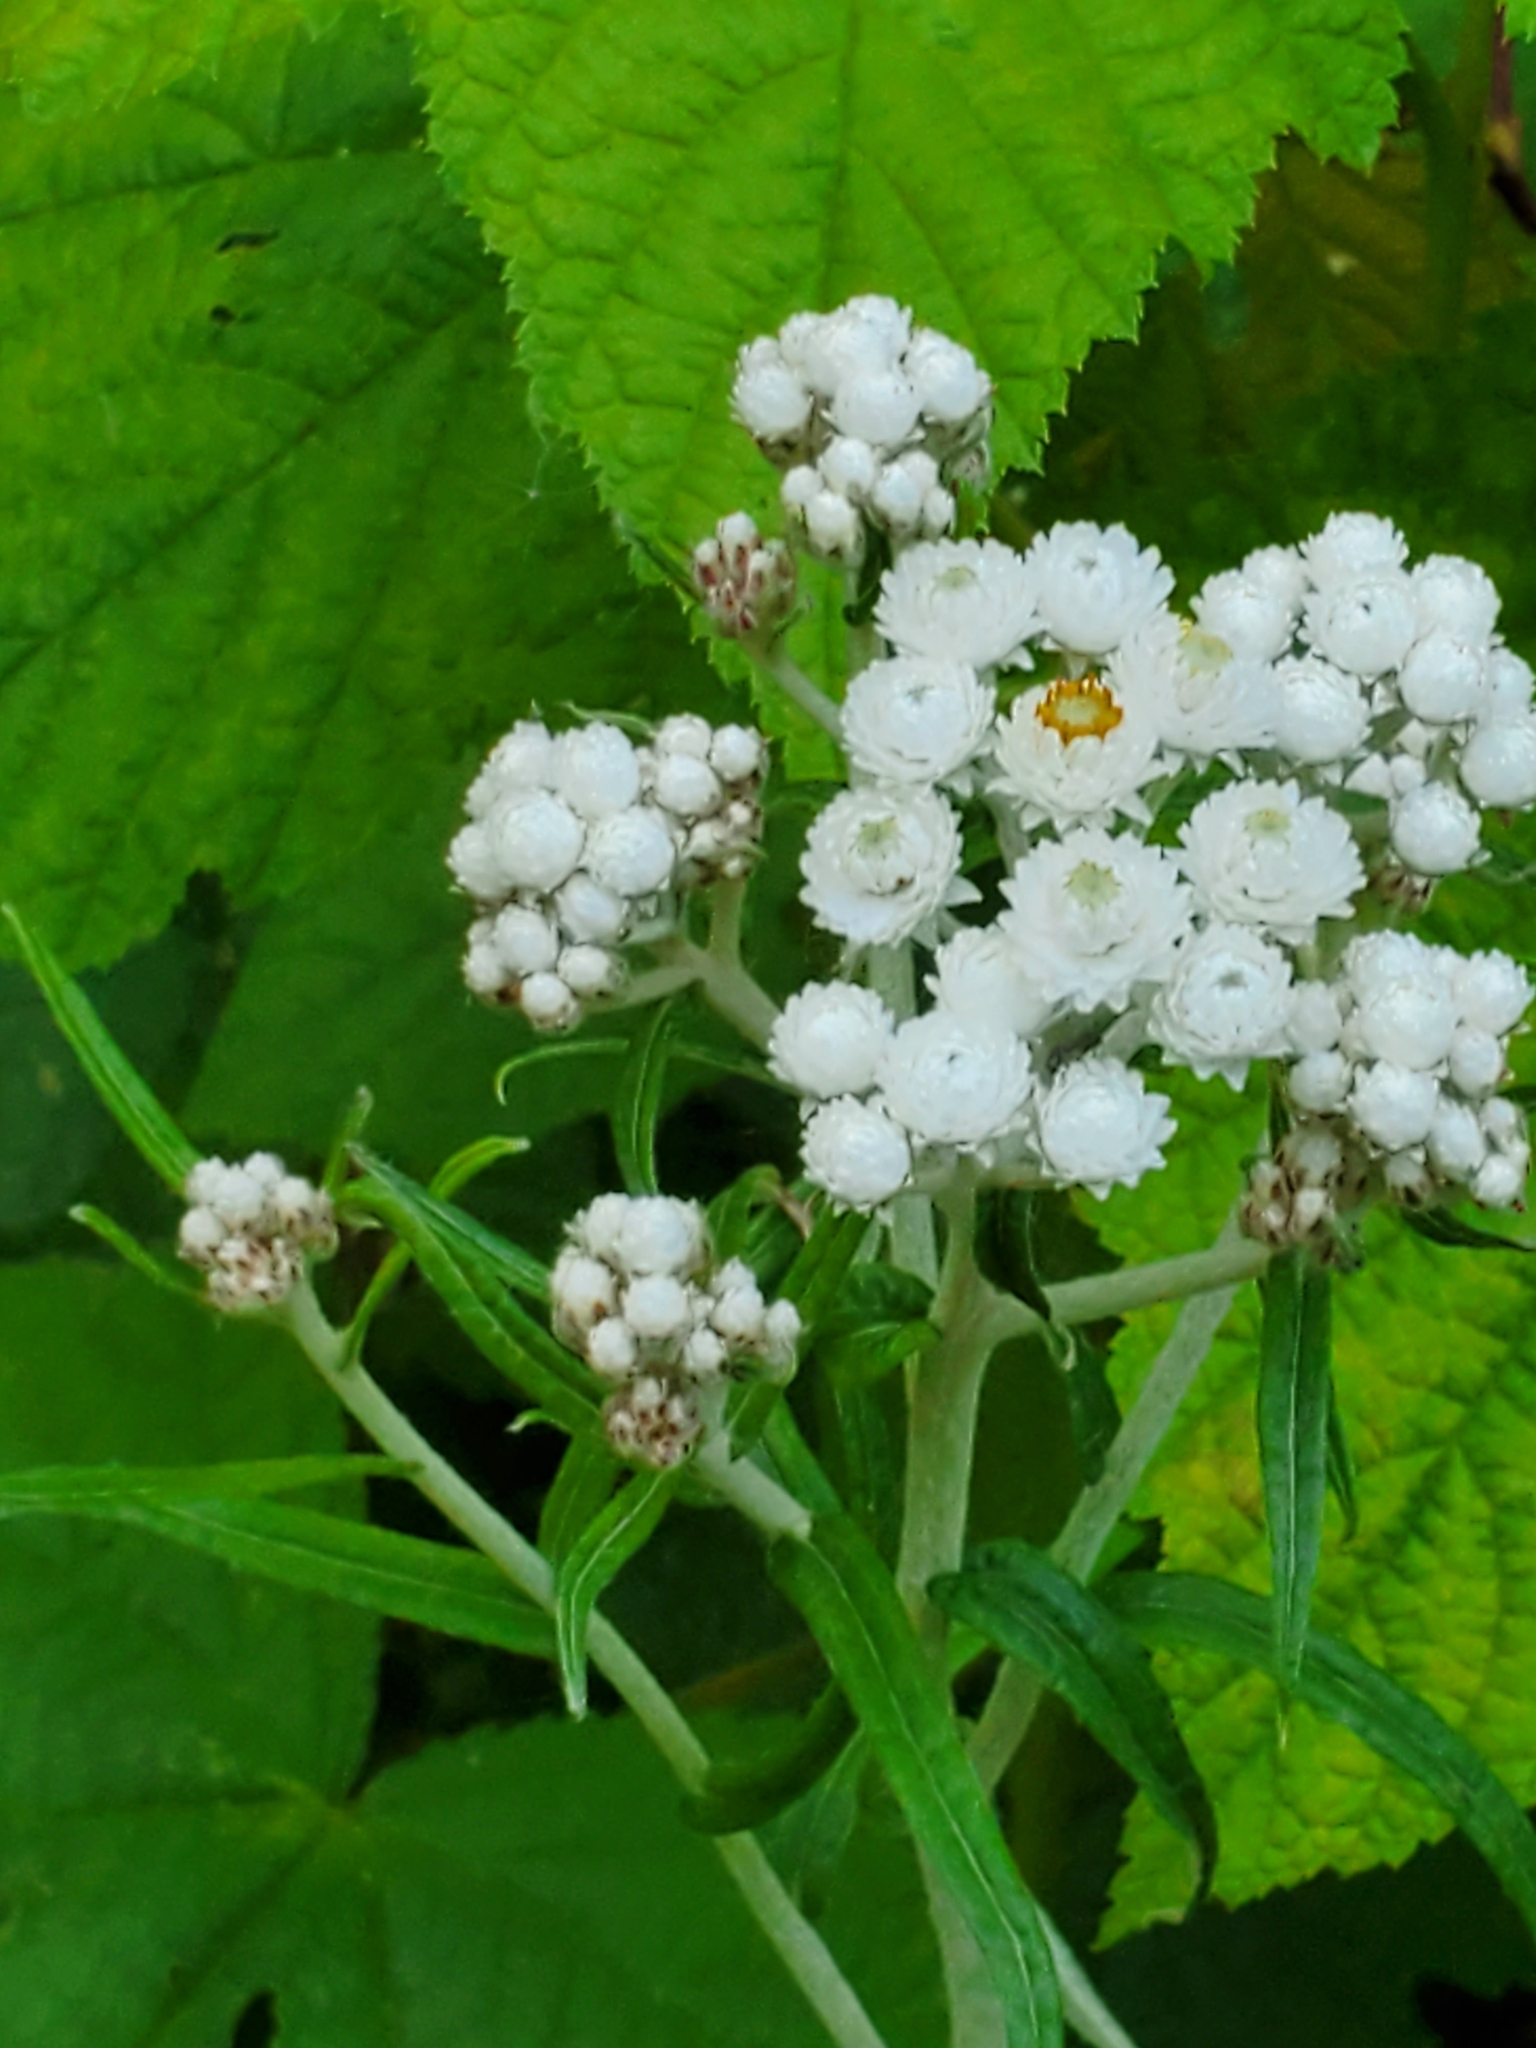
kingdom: Plantae
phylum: Tracheophyta
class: Magnoliopsida
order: Asterales
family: Asteraceae
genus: Anaphalis
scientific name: Anaphalis margaritacea
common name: Pearly everlasting
